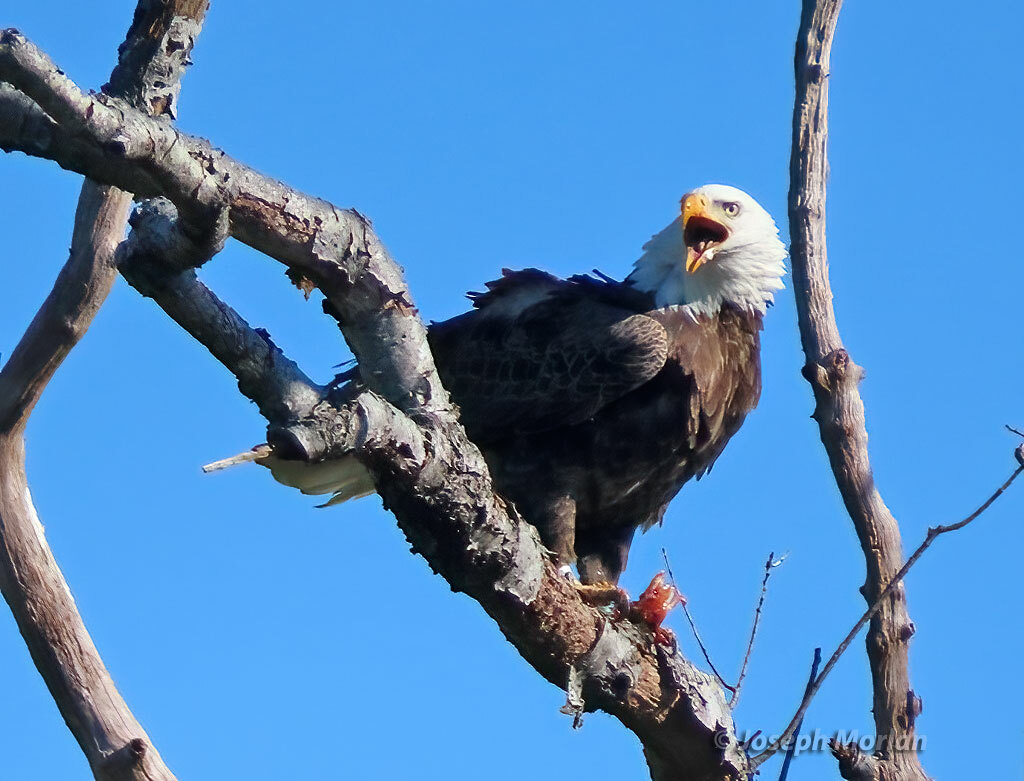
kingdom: Animalia
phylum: Chordata
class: Aves
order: Accipitriformes
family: Accipitridae
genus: Haliaeetus
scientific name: Haliaeetus leucocephalus
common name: Bald eagle
